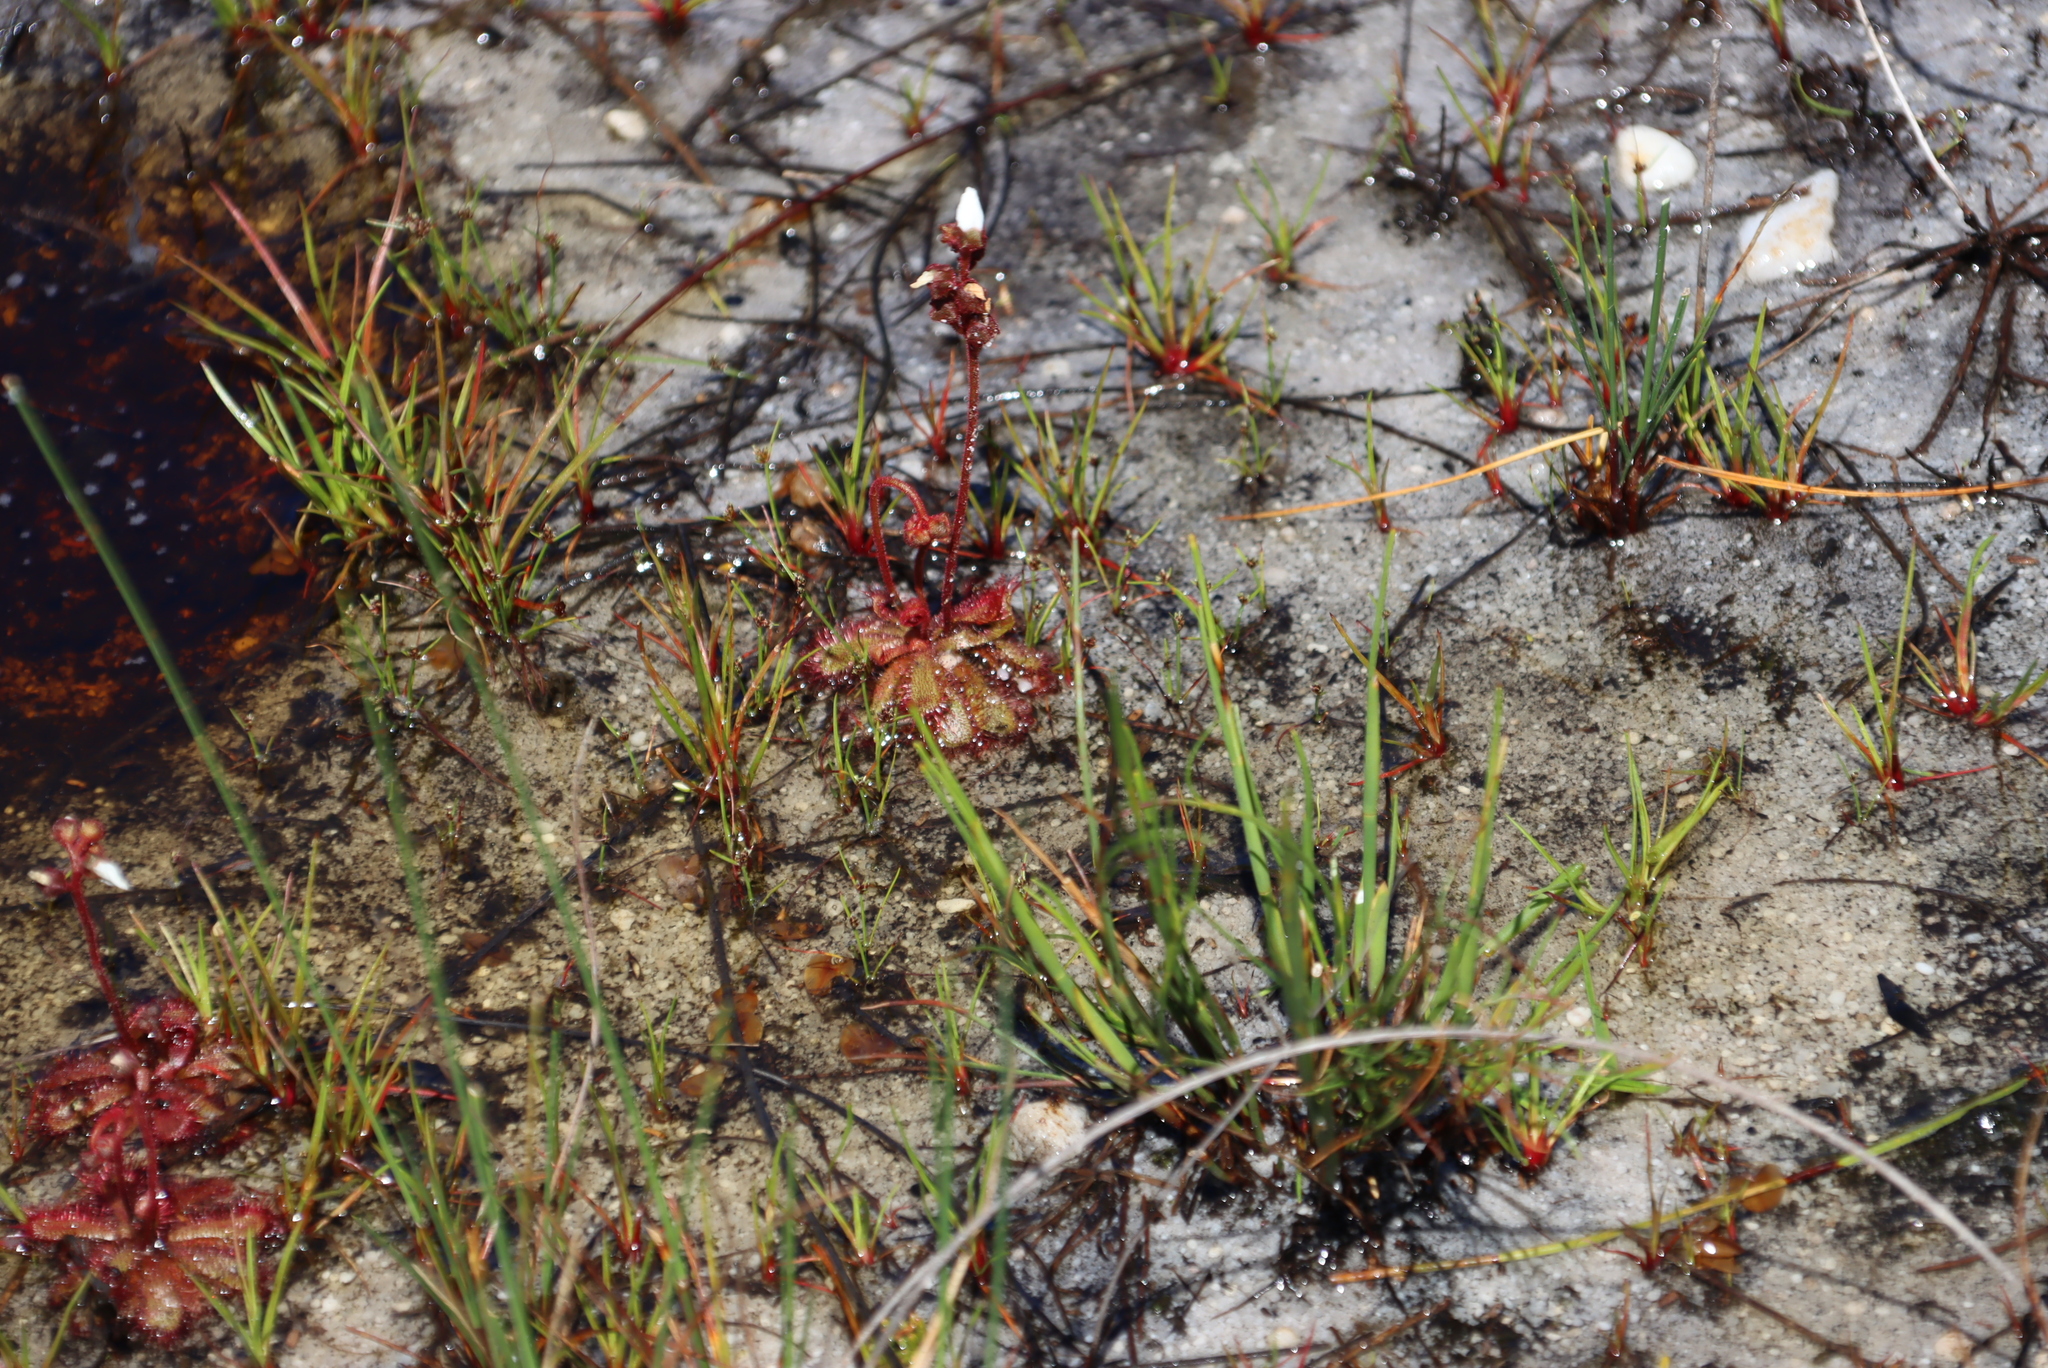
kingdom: Plantae
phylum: Tracheophyta
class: Magnoliopsida
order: Caryophyllales
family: Droseraceae
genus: Drosera
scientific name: Drosera trinervia
